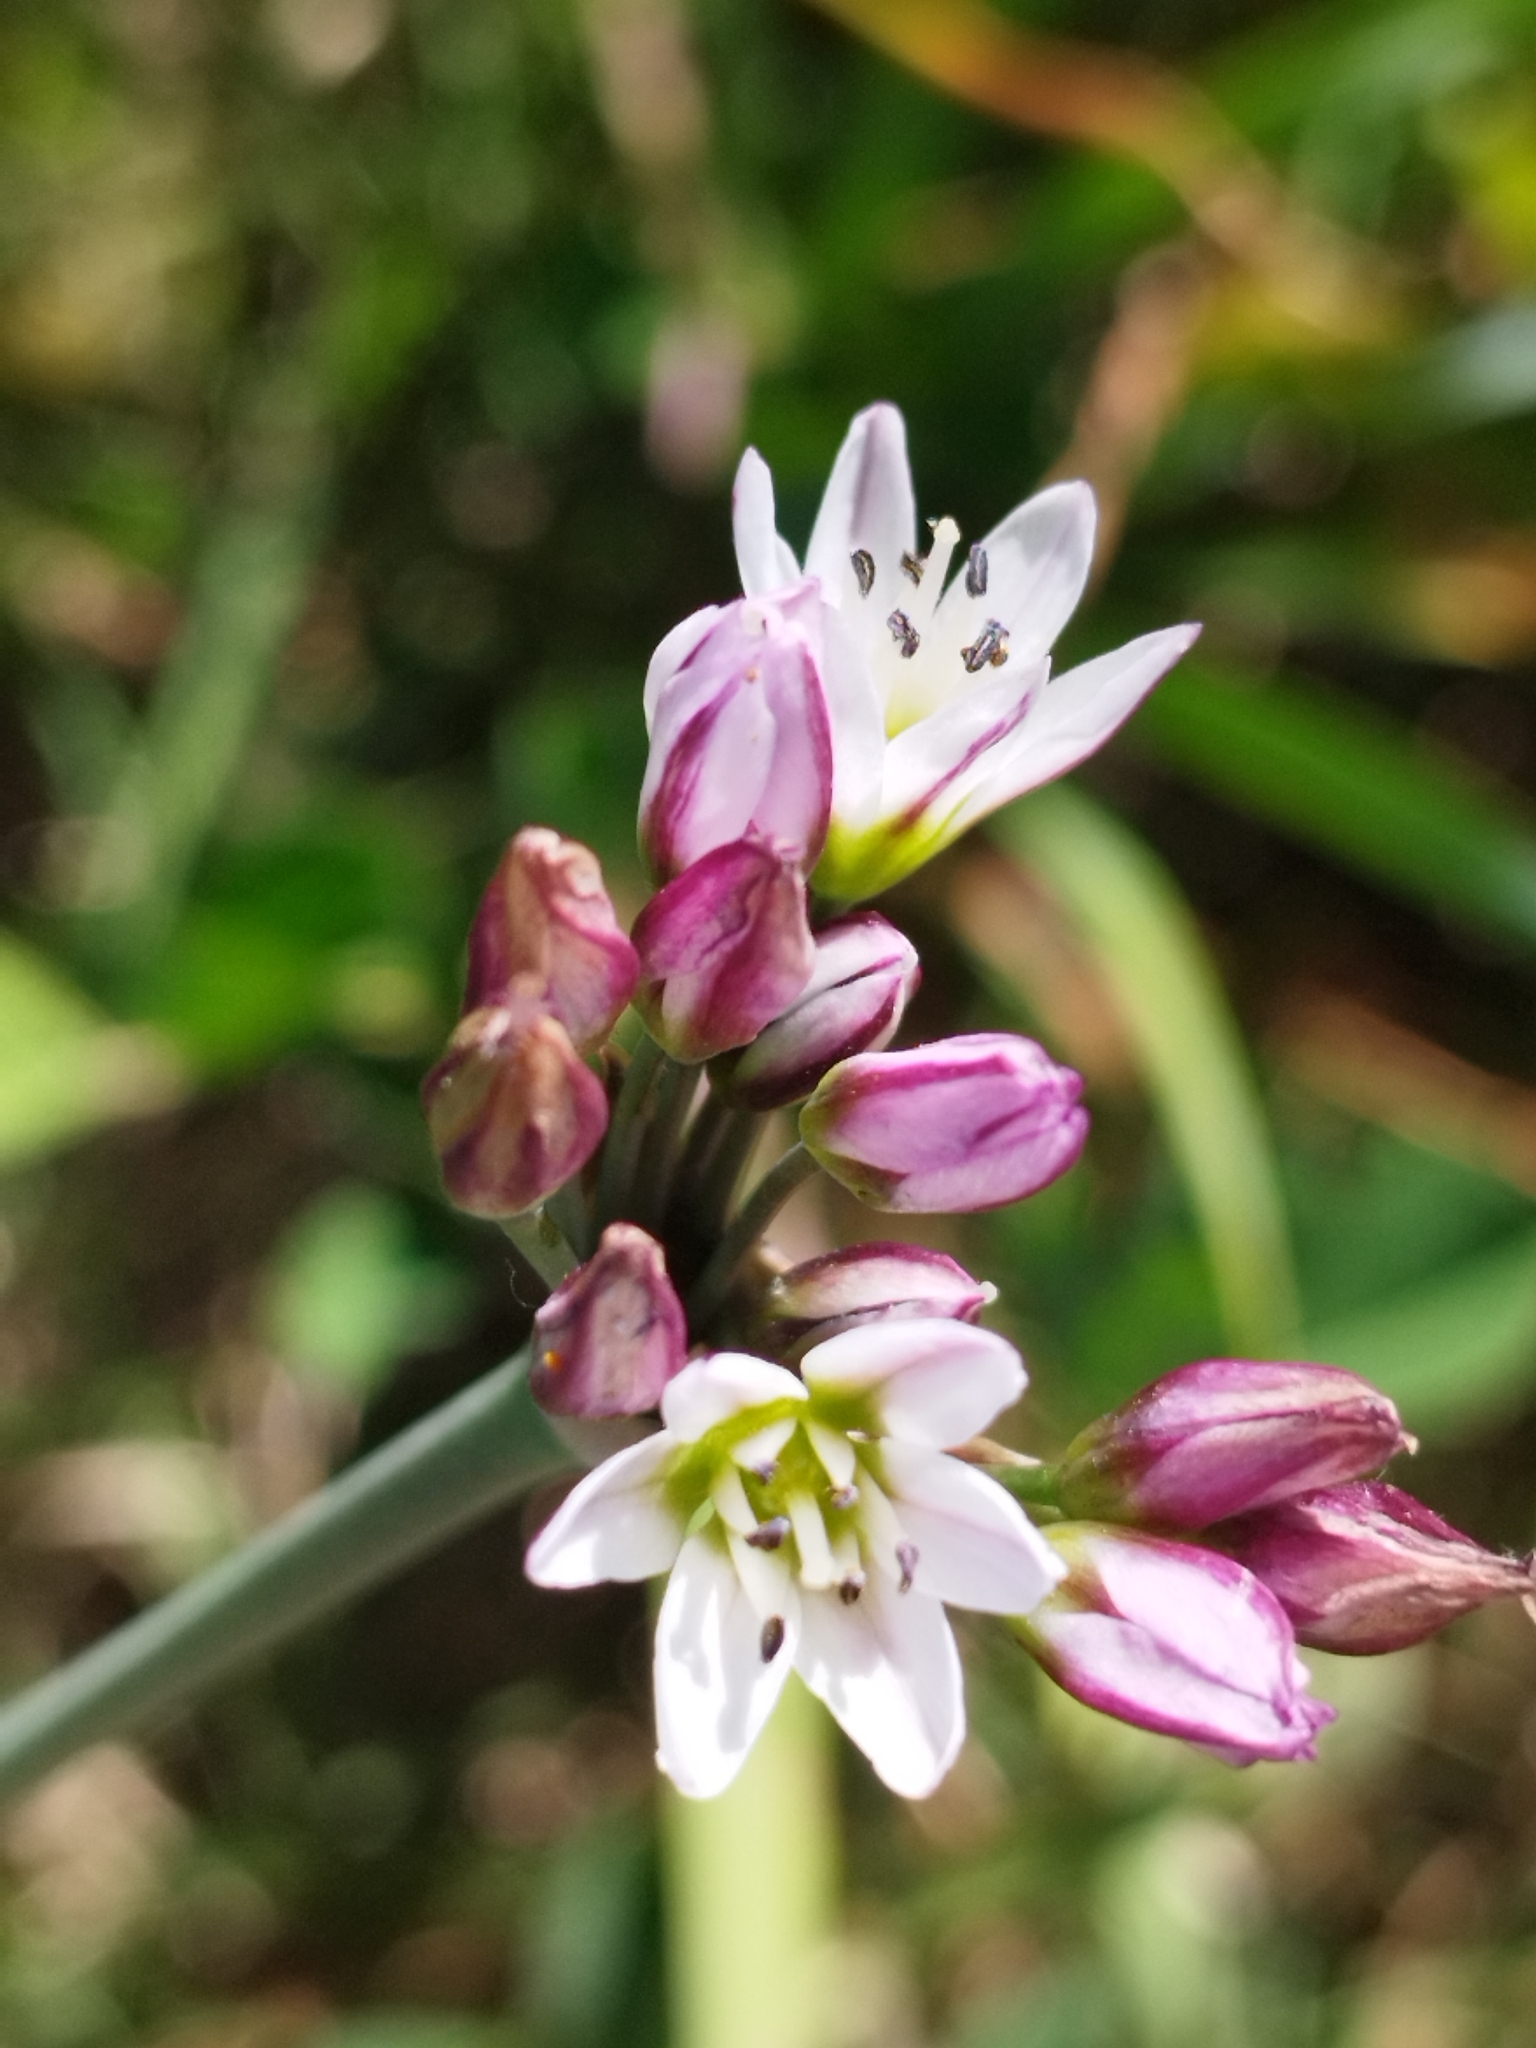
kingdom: Plantae
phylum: Tracheophyta
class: Liliopsida
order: Asparagales
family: Amaryllidaceae
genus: Nothoscordum
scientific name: Nothoscordum gracile
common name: Slender false garlic
